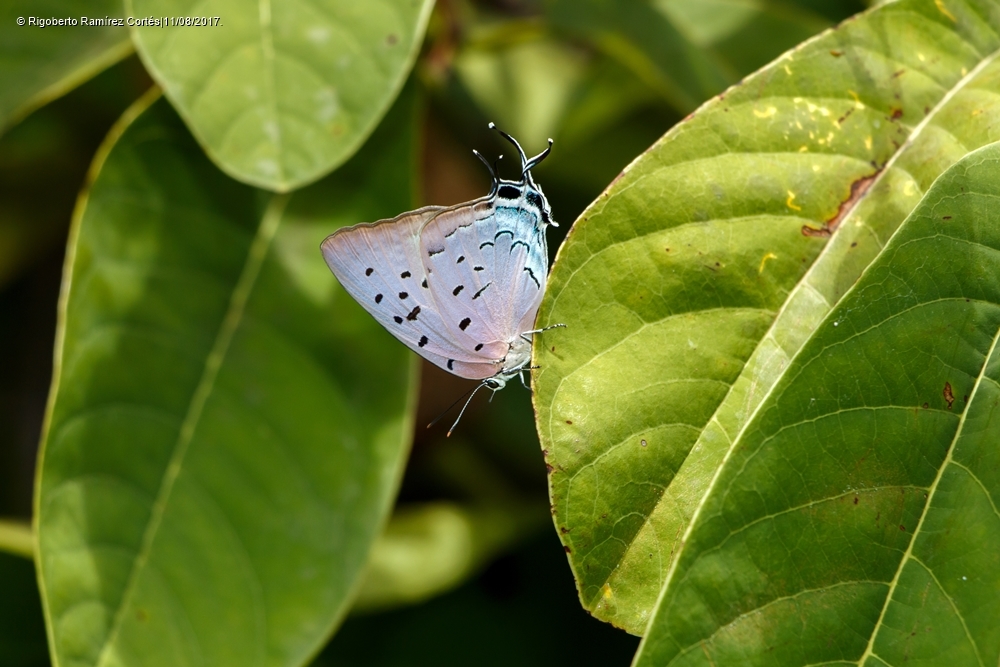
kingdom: Animalia
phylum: Arthropoda
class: Insecta
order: Lepidoptera
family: Lycaenidae
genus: Pseudolycaena
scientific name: Pseudolycaena damo
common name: Sky-blue hairstreak
